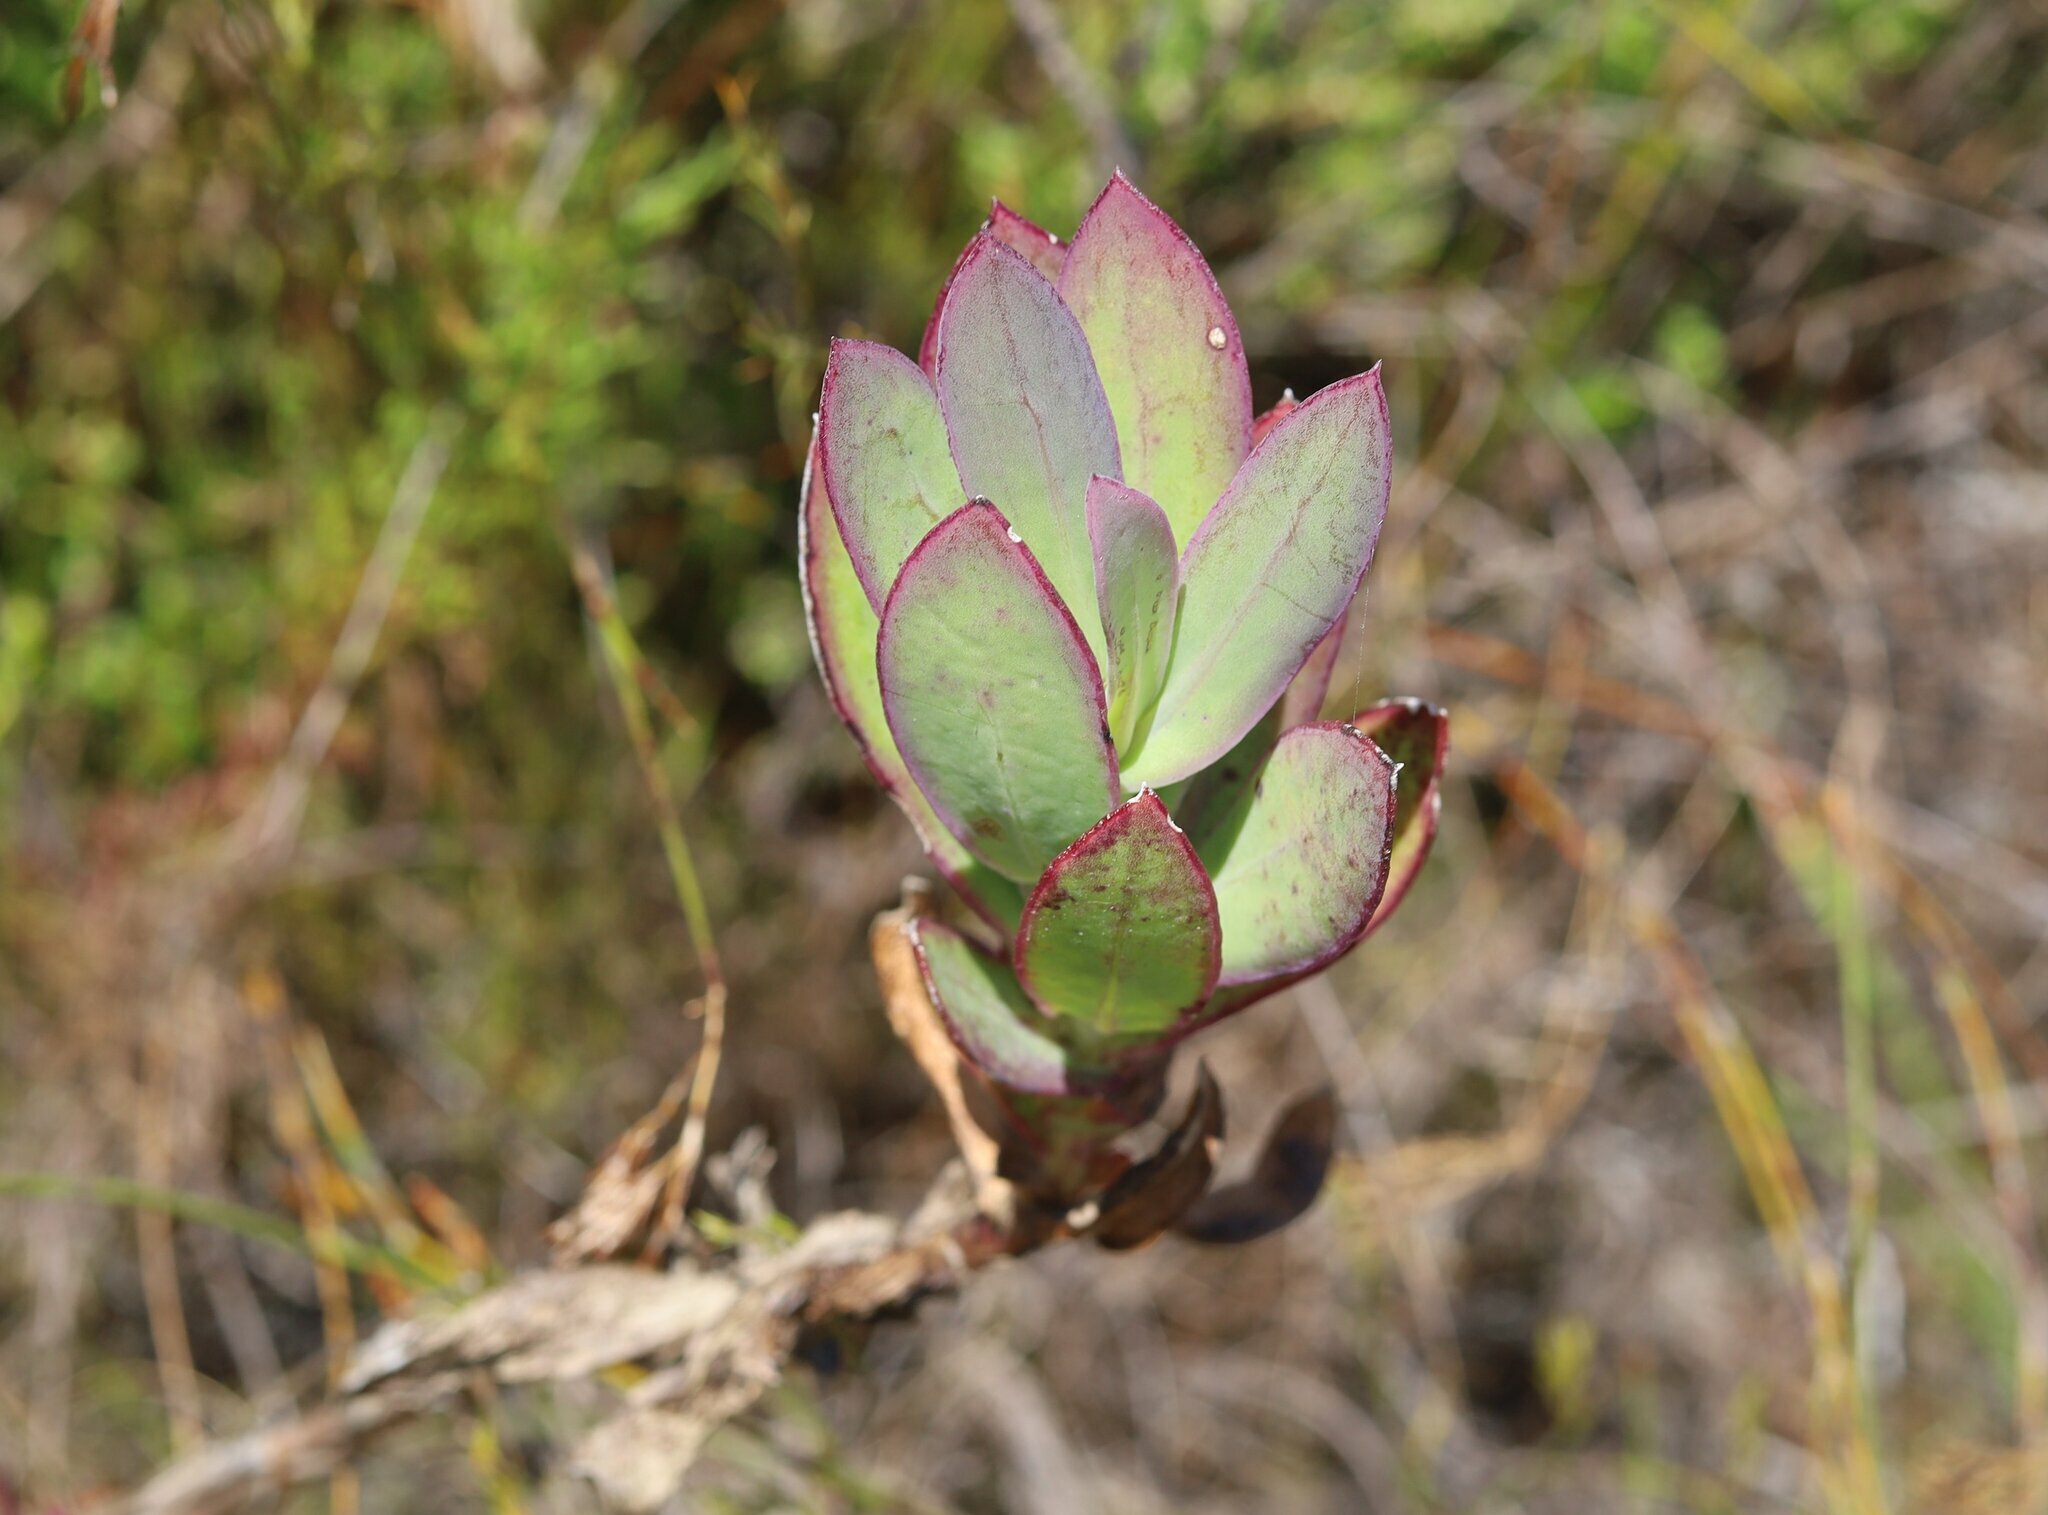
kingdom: Plantae
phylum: Tracheophyta
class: Magnoliopsida
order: Asterales
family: Asteraceae
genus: Othonna
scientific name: Othonna quinquedentata
